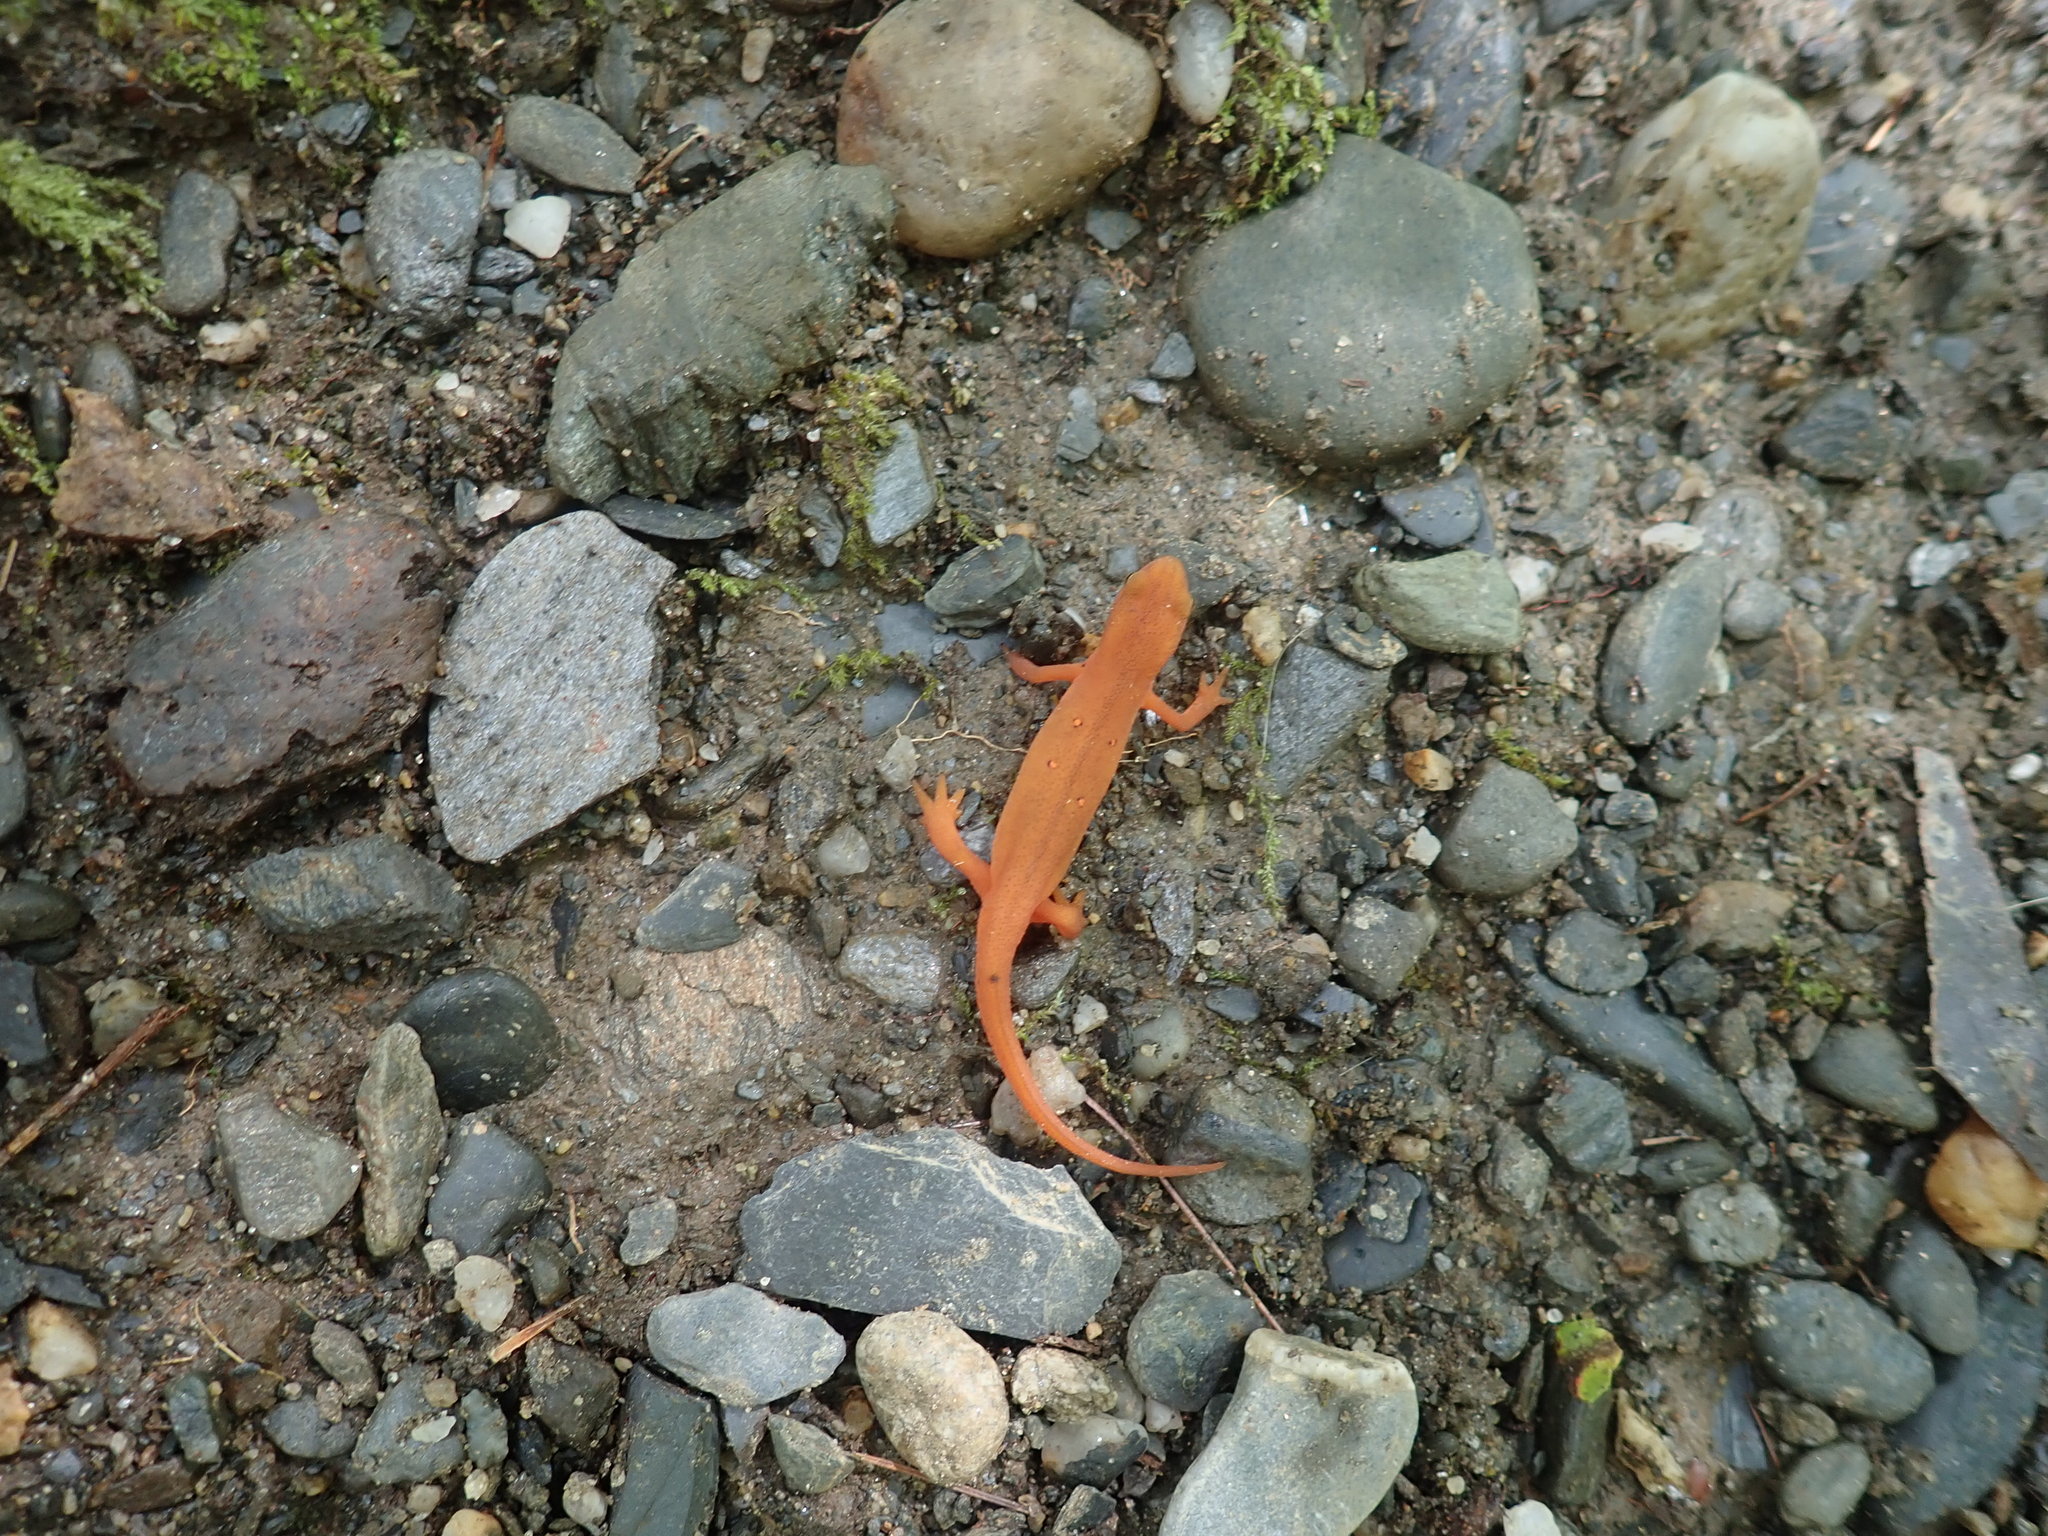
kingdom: Animalia
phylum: Chordata
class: Amphibia
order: Caudata
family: Salamandridae
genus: Notophthalmus
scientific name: Notophthalmus viridescens
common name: Eastern newt
